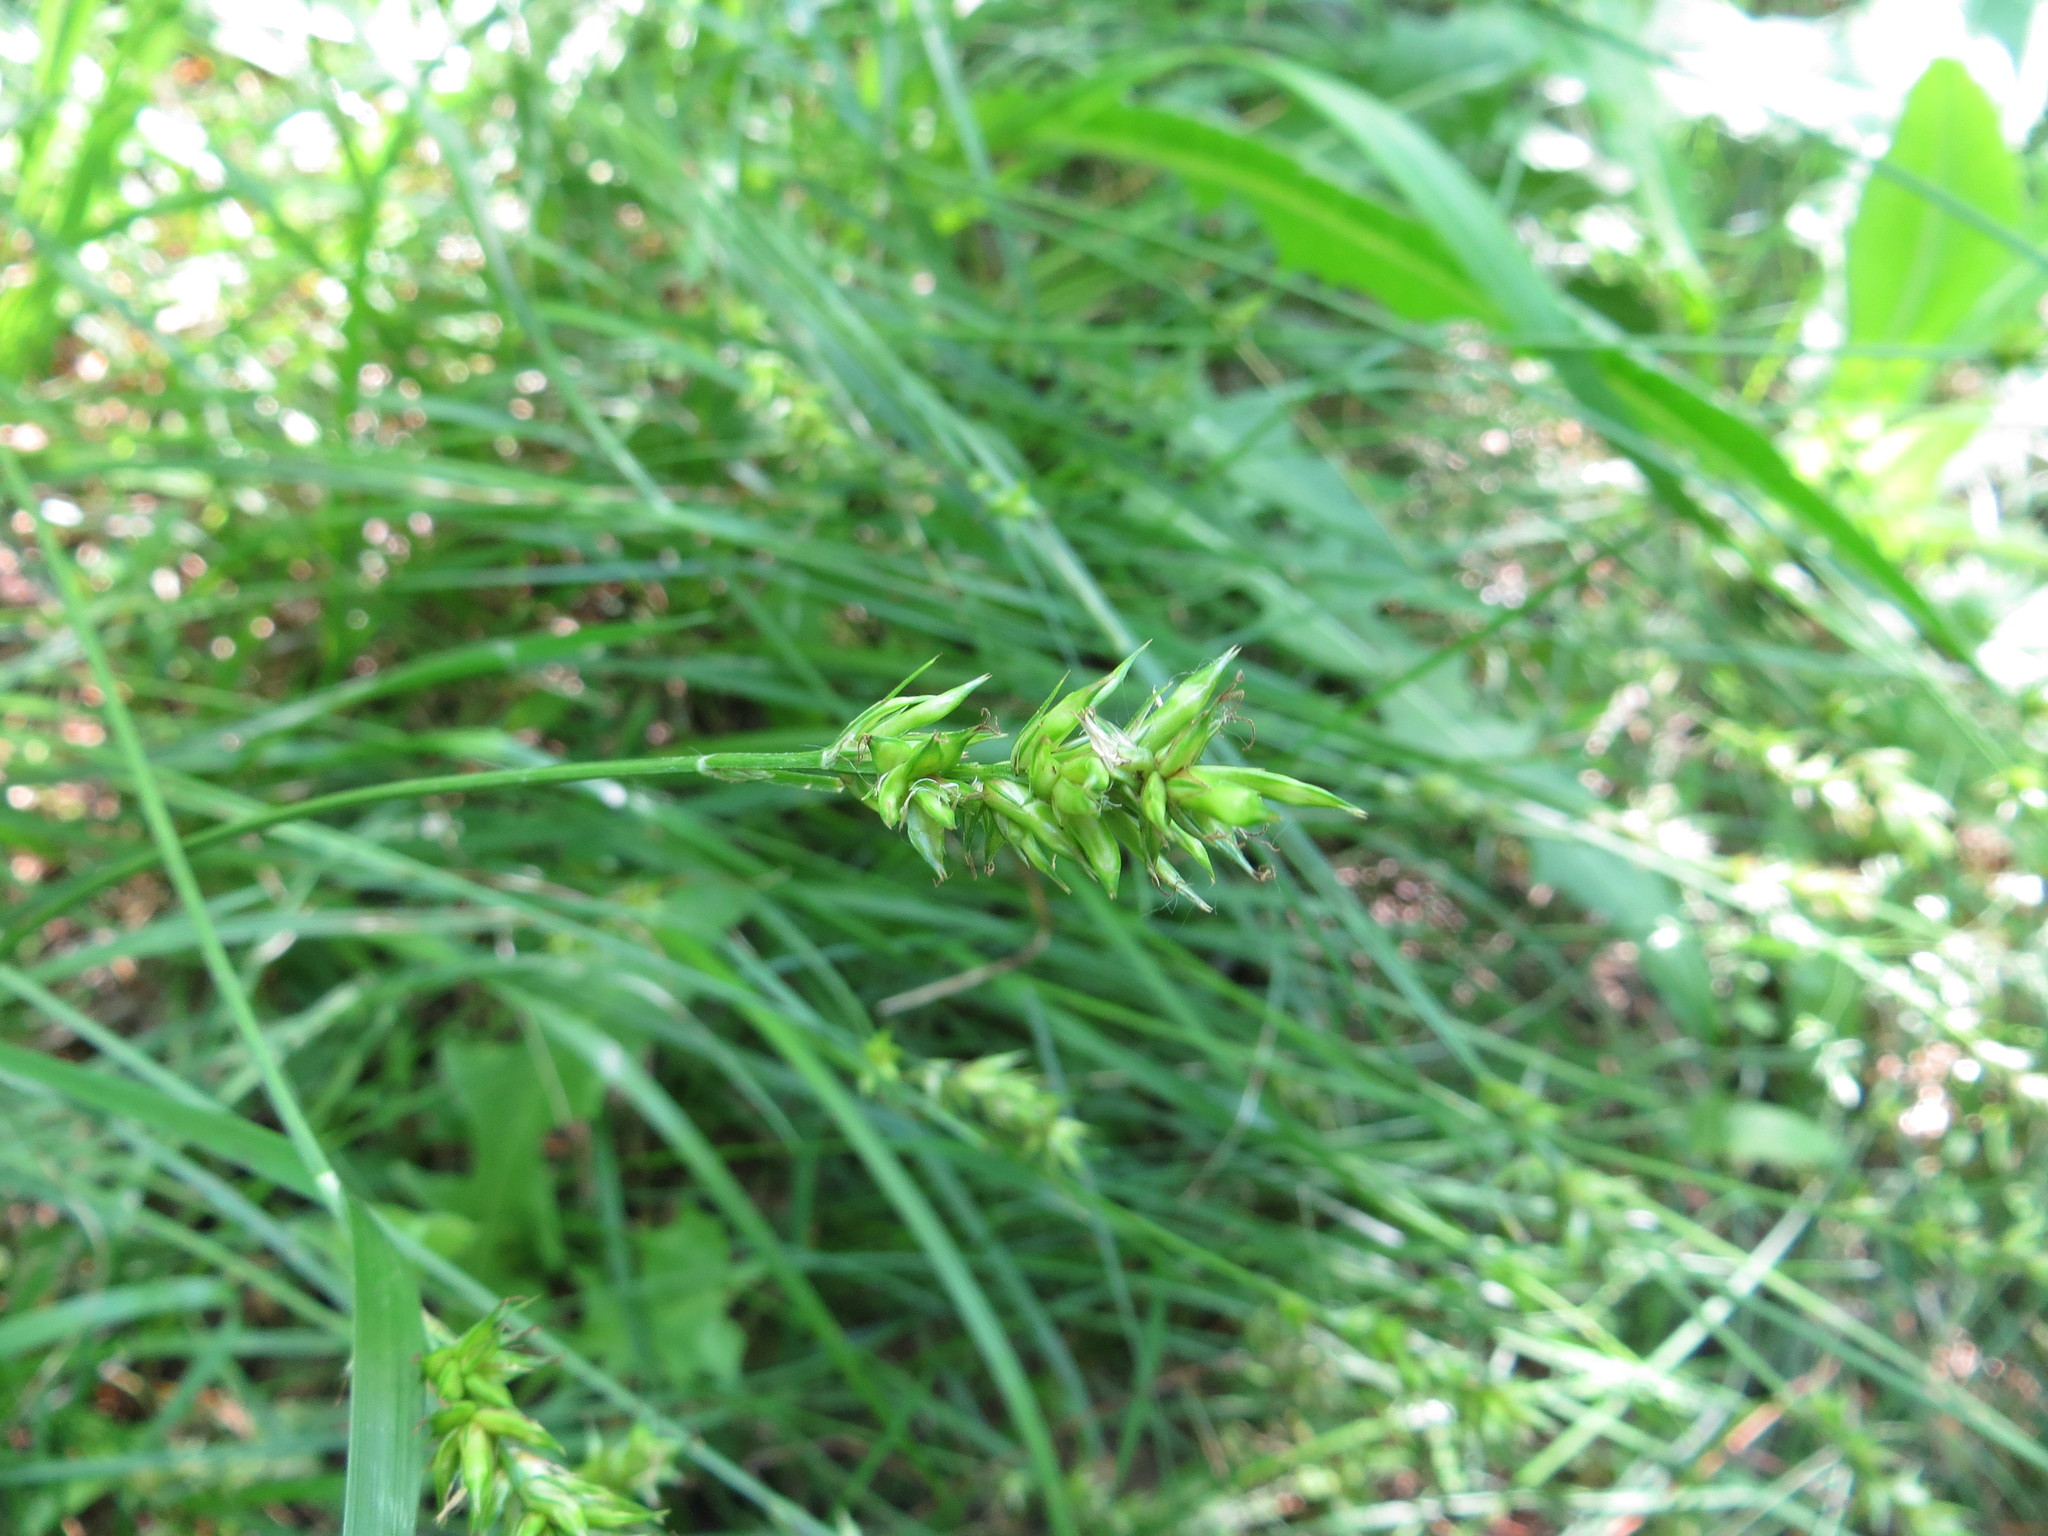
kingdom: Plantae
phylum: Tracheophyta
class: Liliopsida
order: Poales
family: Cyperaceae
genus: Carex
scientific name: Carex spicata
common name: Spiked sedge
